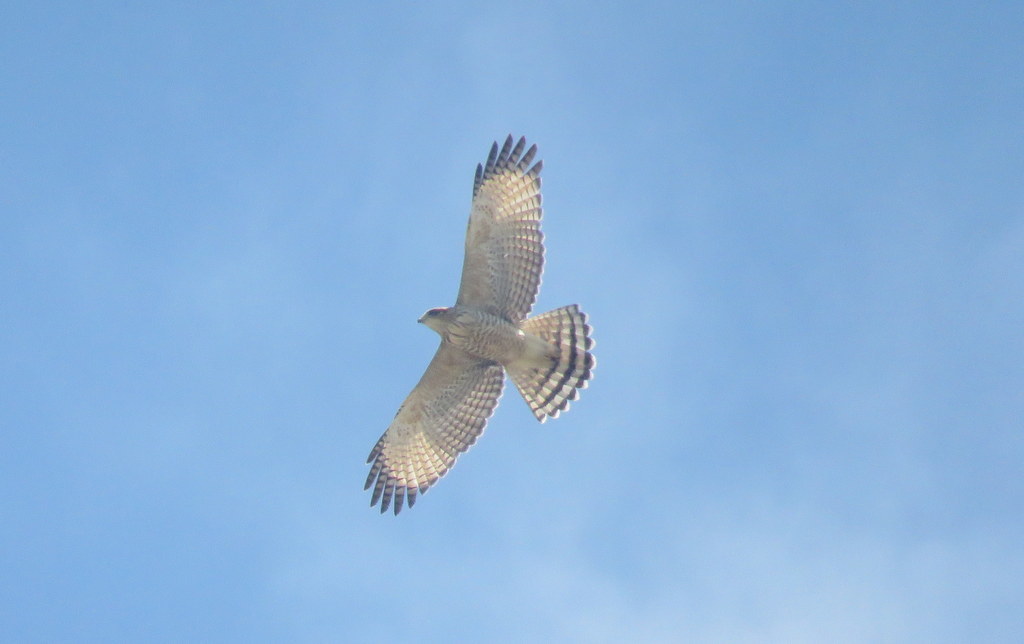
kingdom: Animalia
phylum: Chordata
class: Aves
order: Accipitriformes
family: Accipitridae
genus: Rupornis
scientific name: Rupornis magnirostris
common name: Roadside hawk
